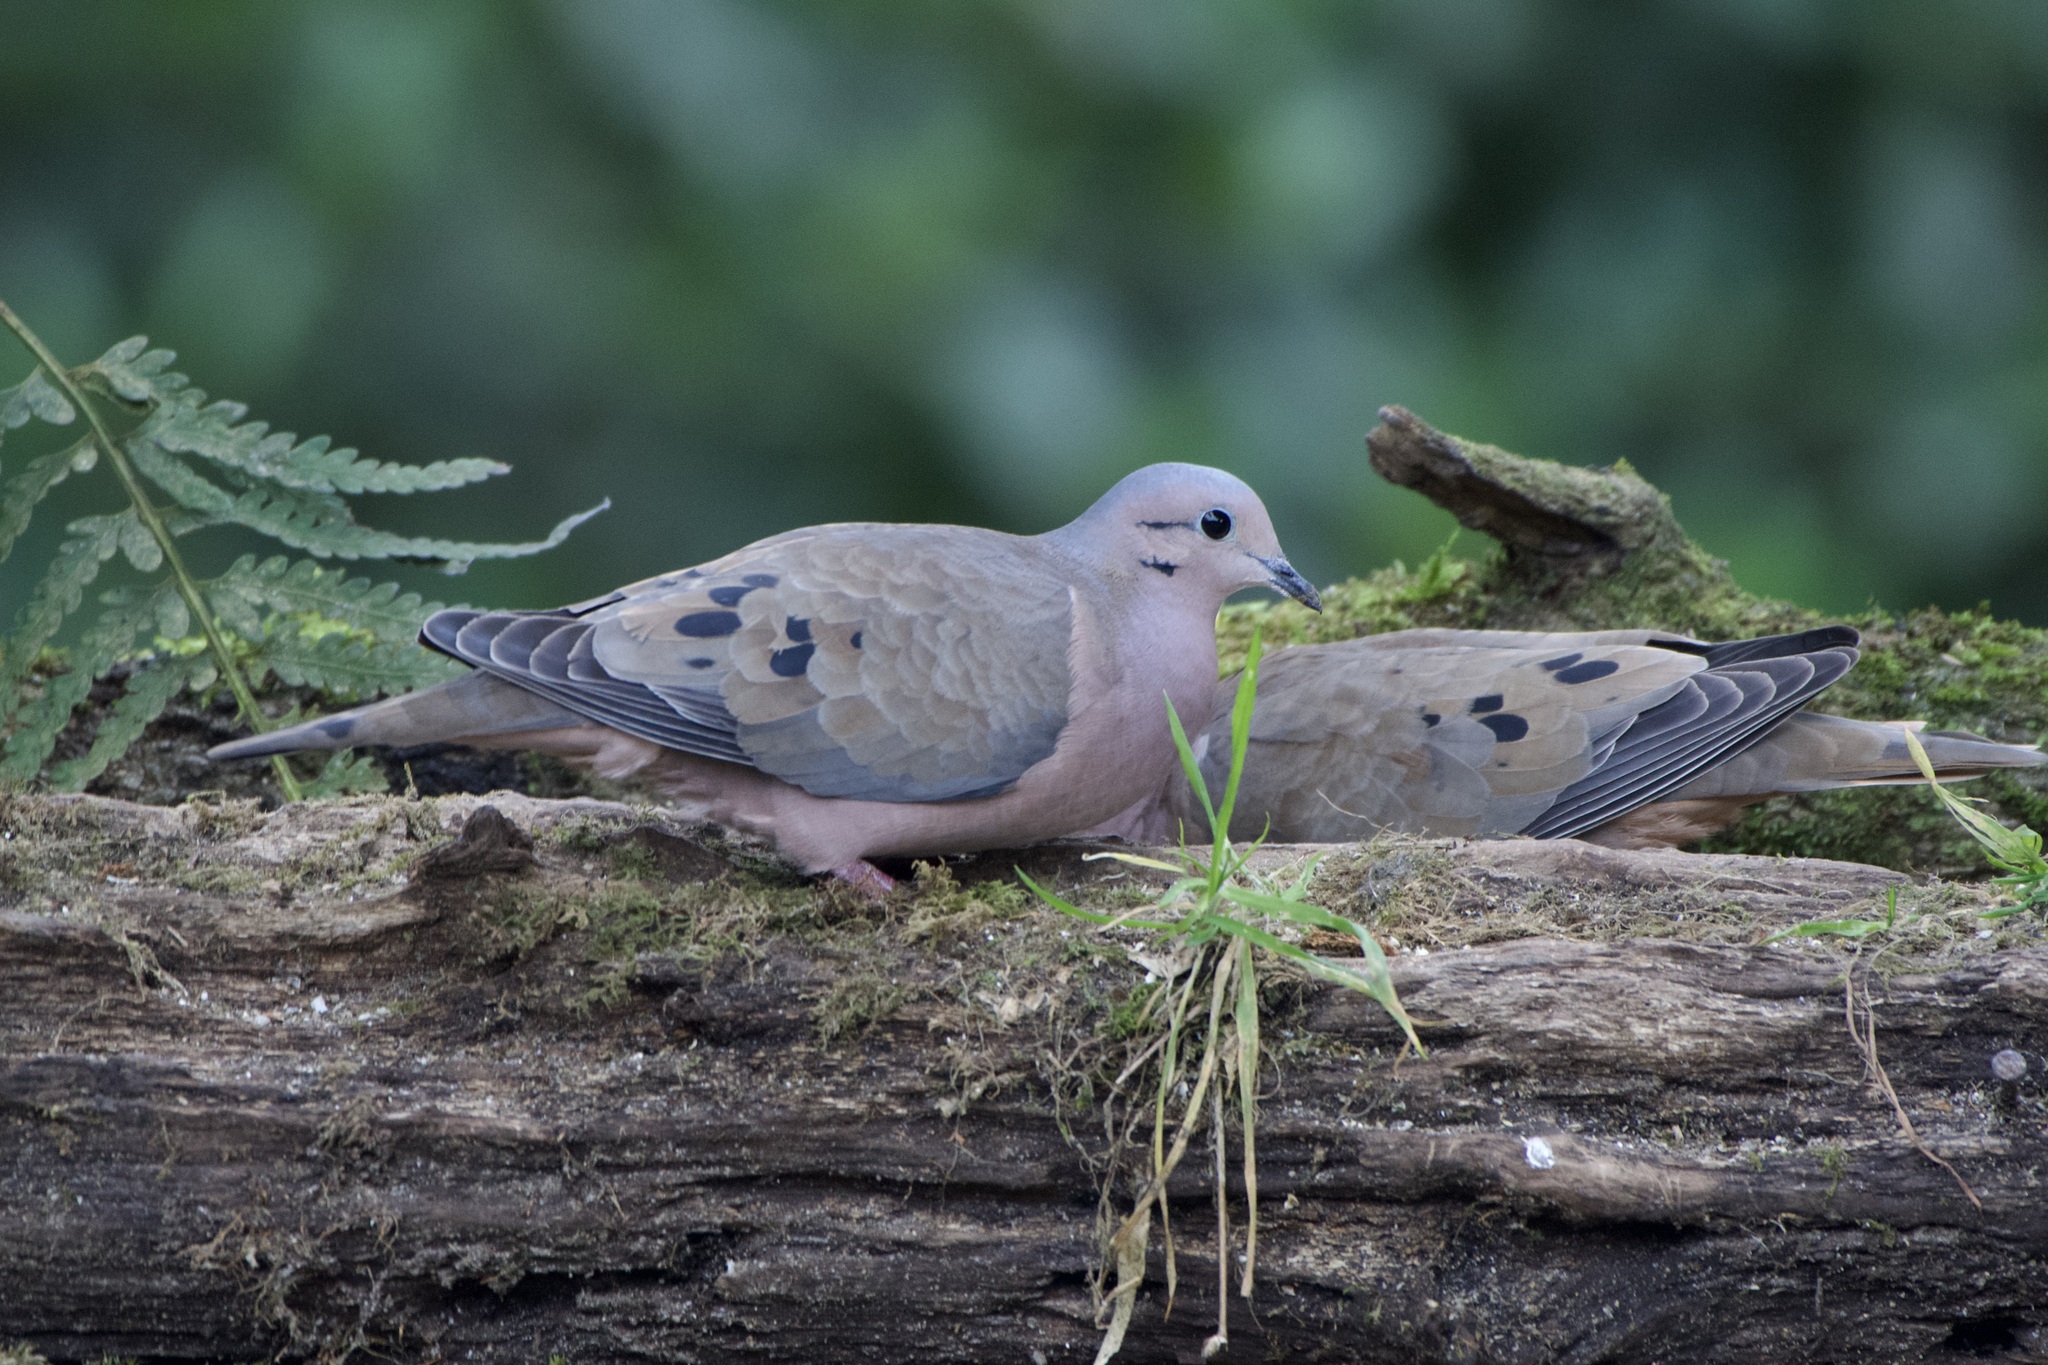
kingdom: Animalia
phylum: Chordata
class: Aves
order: Columbiformes
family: Columbidae
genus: Zenaida
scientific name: Zenaida auriculata
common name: Eared dove
